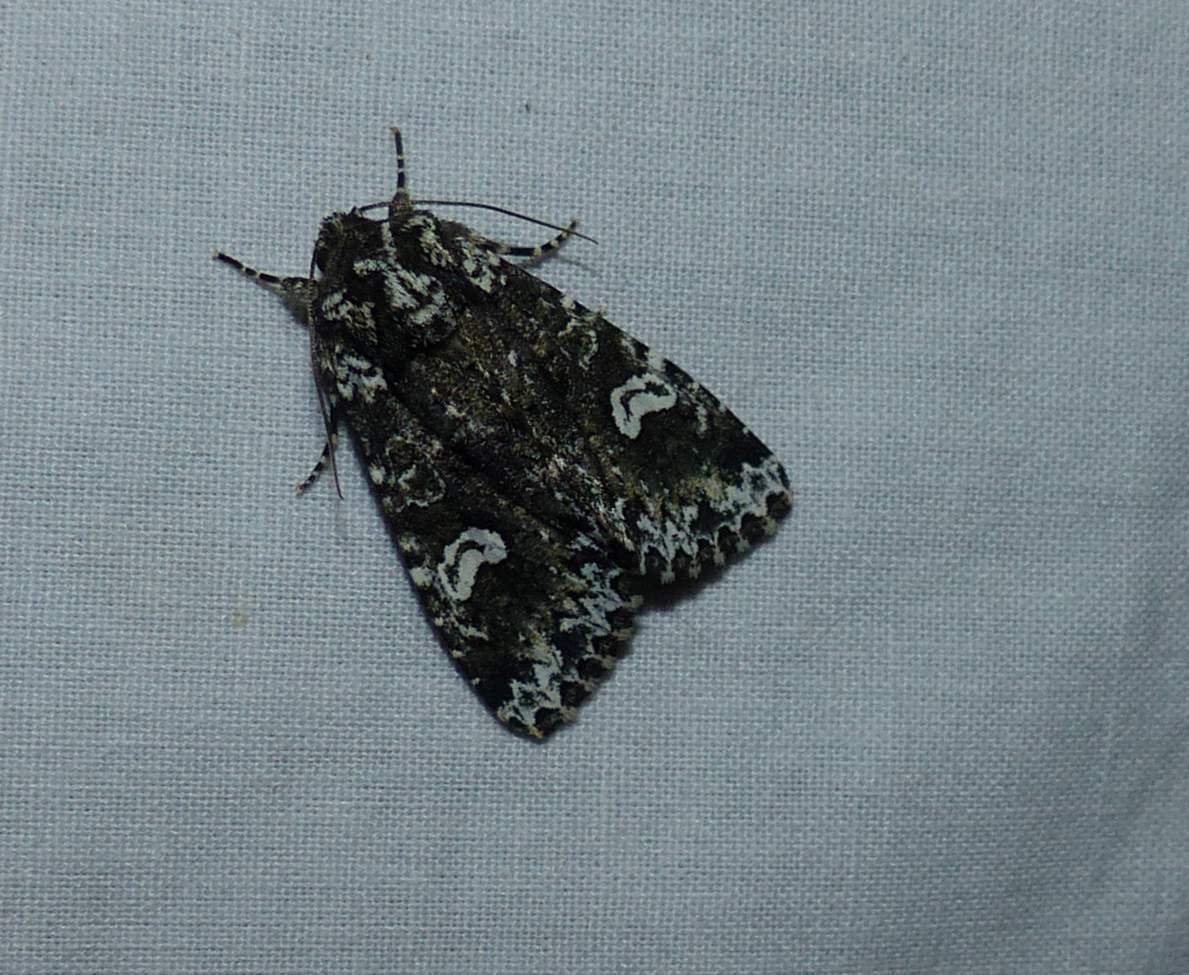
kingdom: Animalia
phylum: Arthropoda
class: Insecta
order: Lepidoptera
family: Noctuidae
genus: Melanchra
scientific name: Melanchra adjuncta
